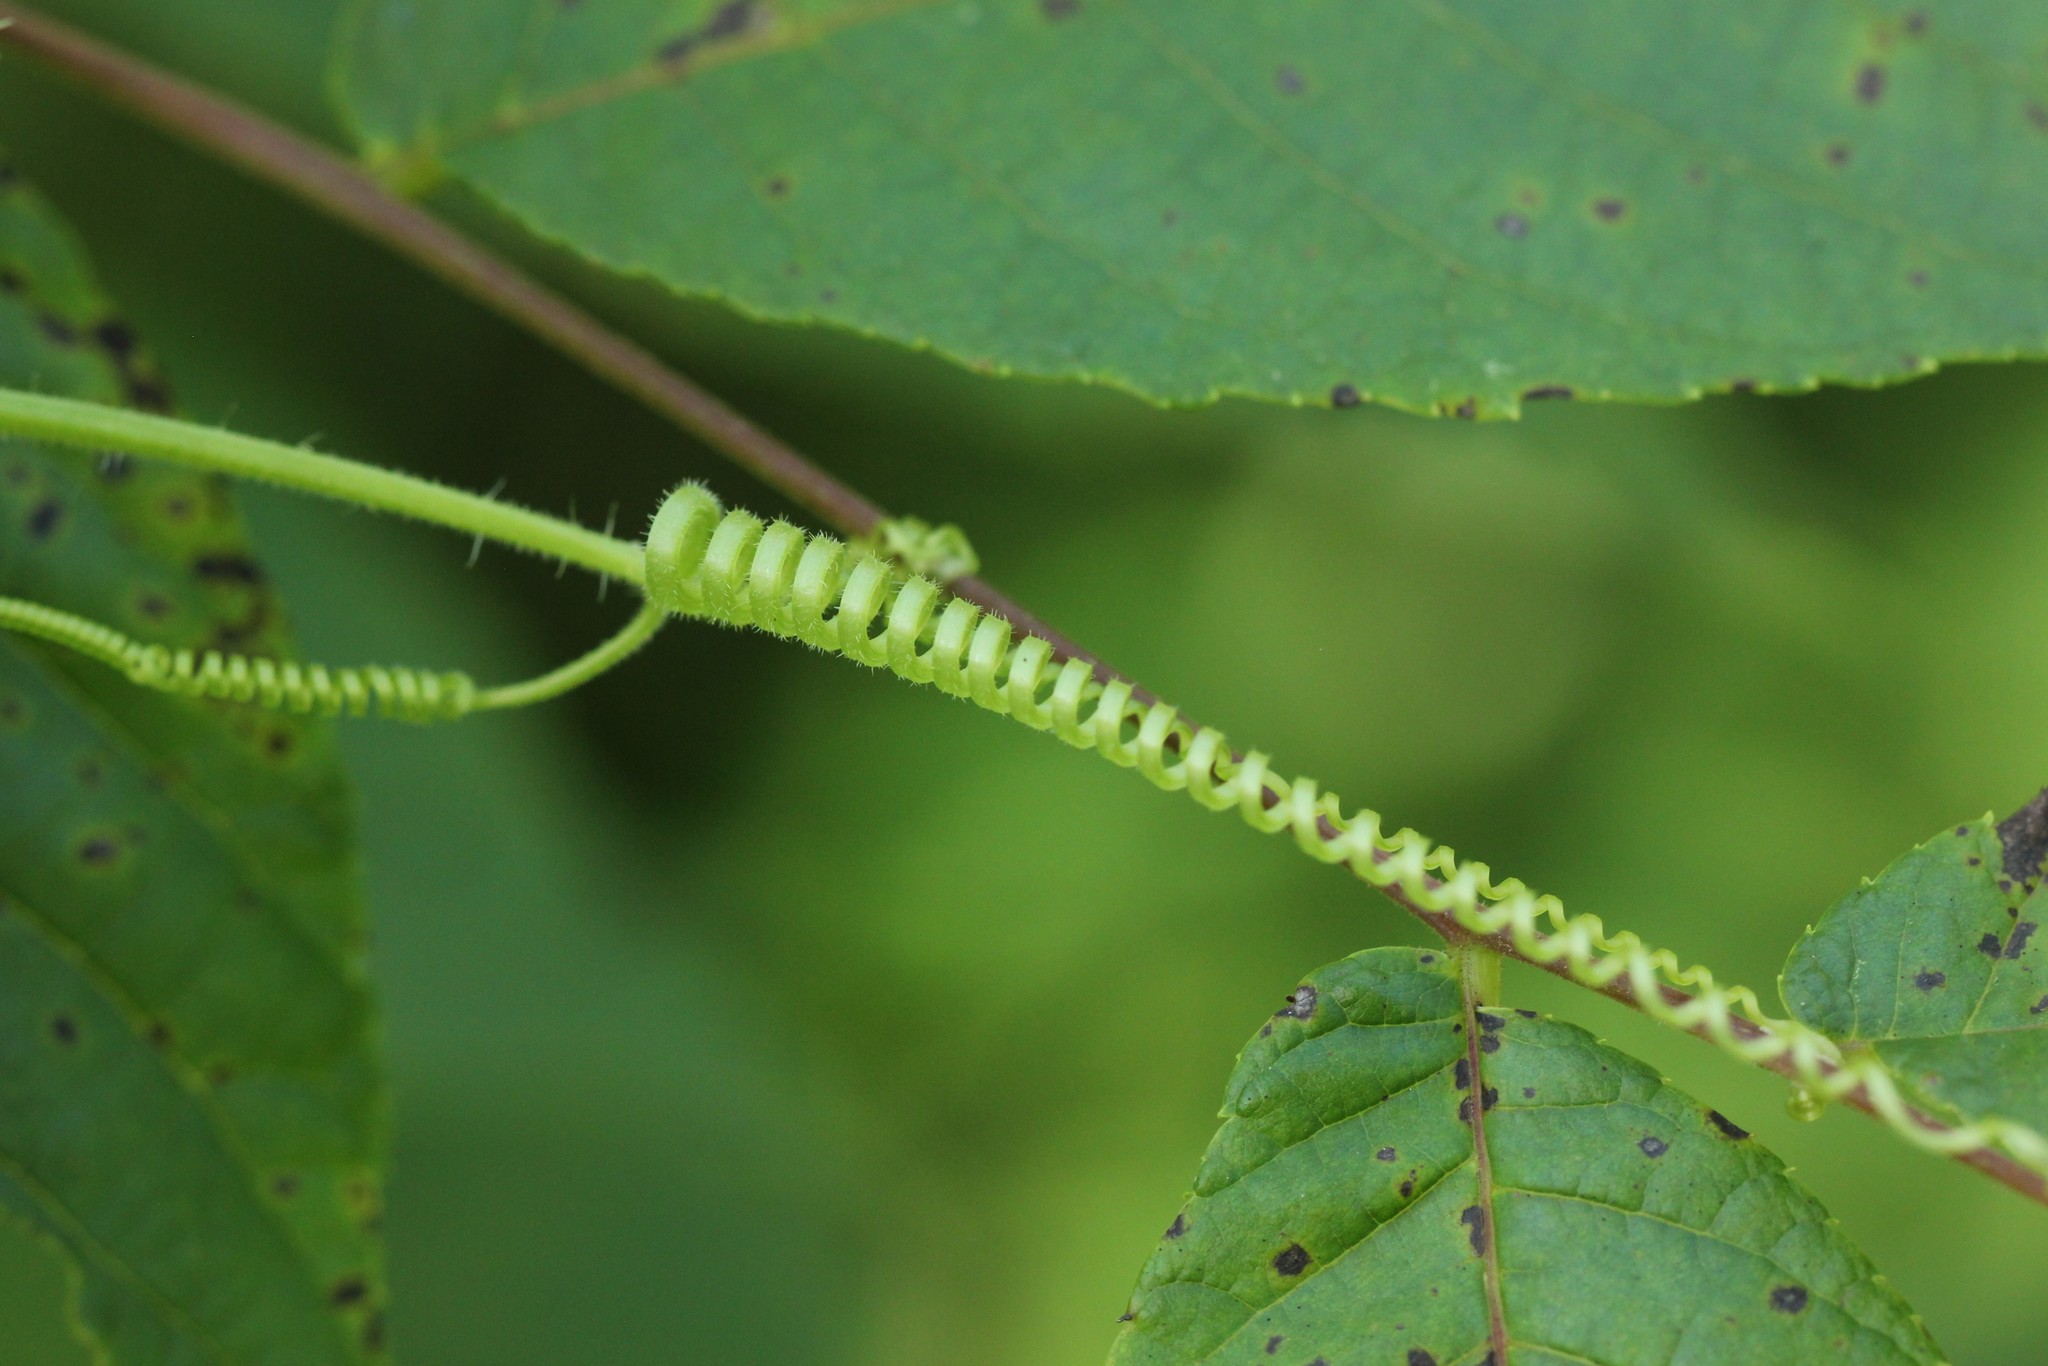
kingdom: Plantae
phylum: Tracheophyta
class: Magnoliopsida
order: Cucurbitales
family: Cucurbitaceae
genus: Sicyos
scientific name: Sicyos angulatus
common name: Angled burr cucumber
